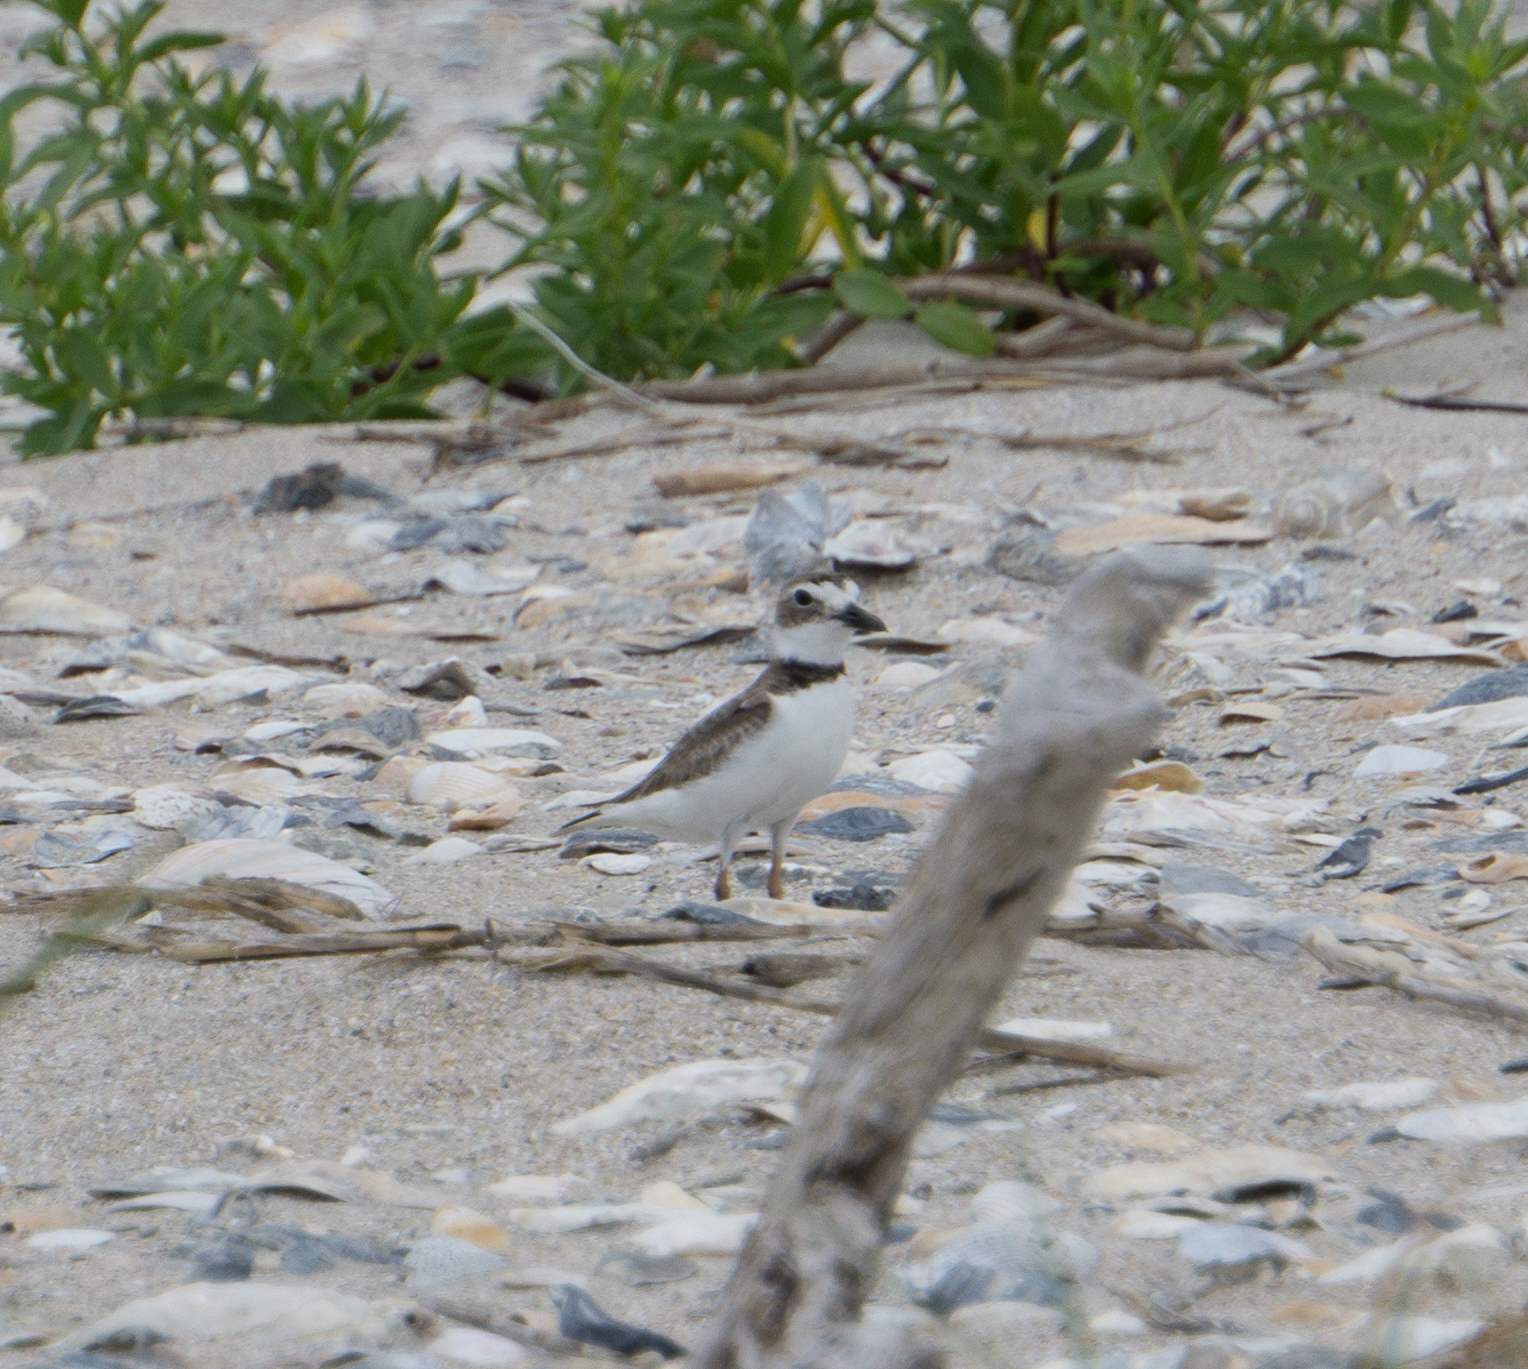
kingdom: Animalia
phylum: Chordata
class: Aves
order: Charadriiformes
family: Charadriidae
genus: Anarhynchus
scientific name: Anarhynchus
